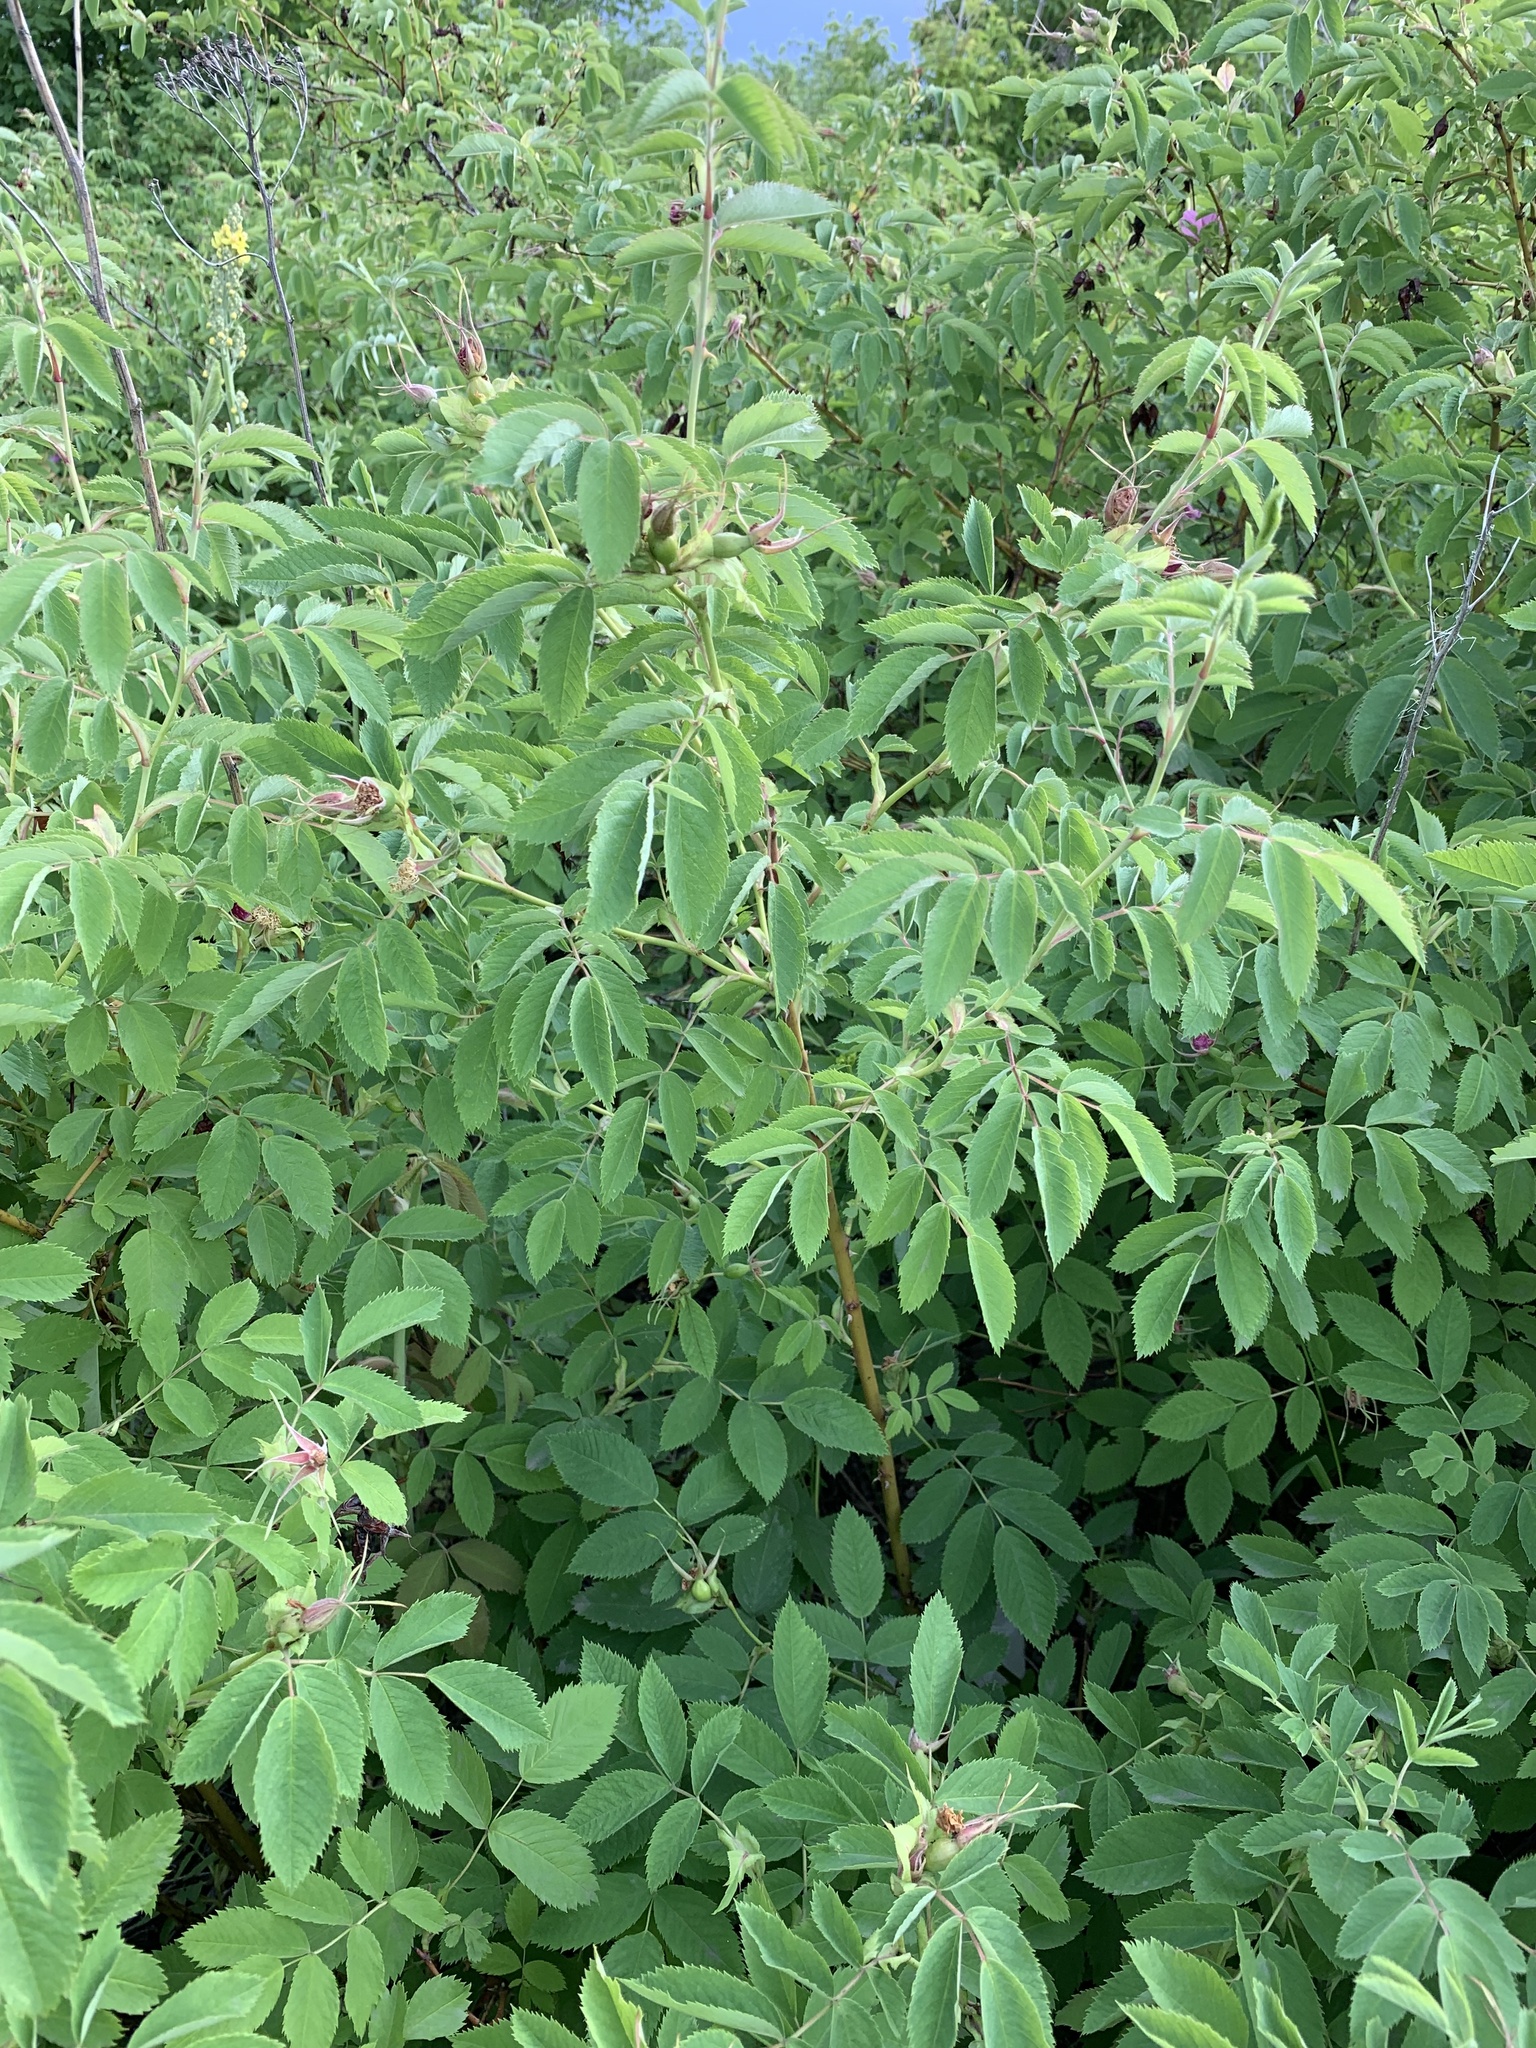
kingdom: Plantae
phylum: Tracheophyta
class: Magnoliopsida
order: Rosales
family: Rosaceae
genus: Rosa
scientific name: Rosa majalis
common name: Cinnamon rose
